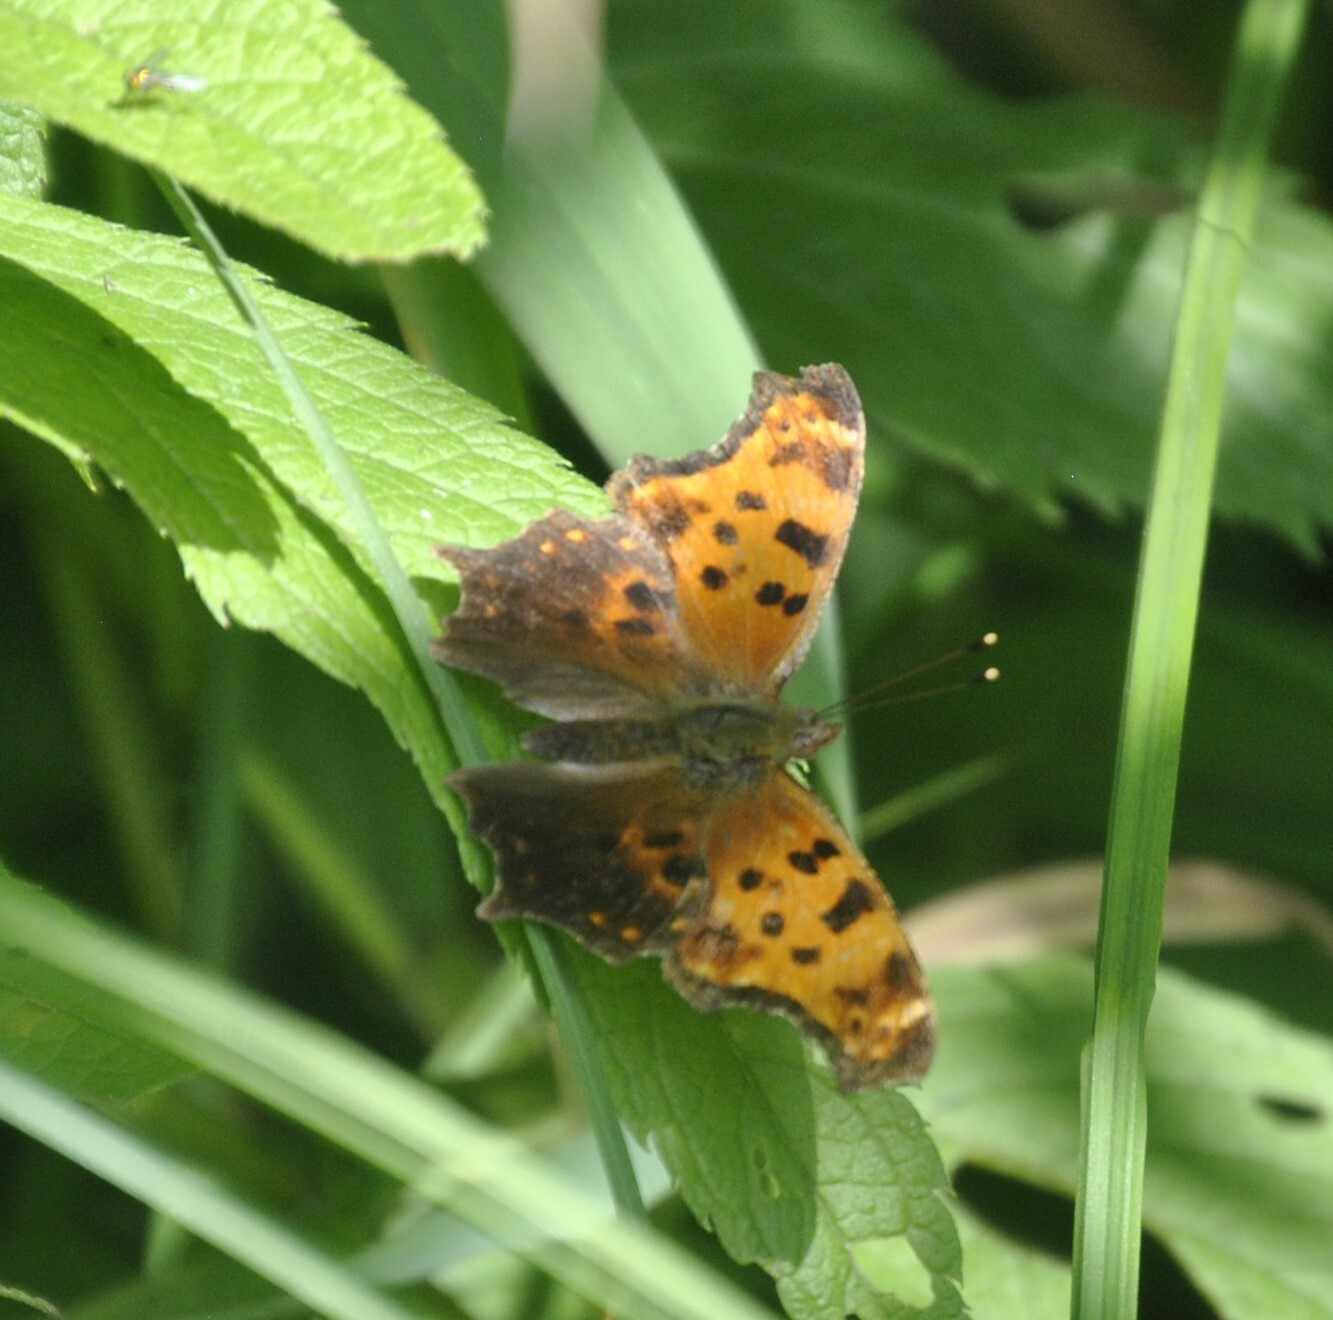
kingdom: Animalia
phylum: Arthropoda
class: Insecta
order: Lepidoptera
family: Nymphalidae
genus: Polygonia
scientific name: Polygonia comma
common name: Eastern comma
